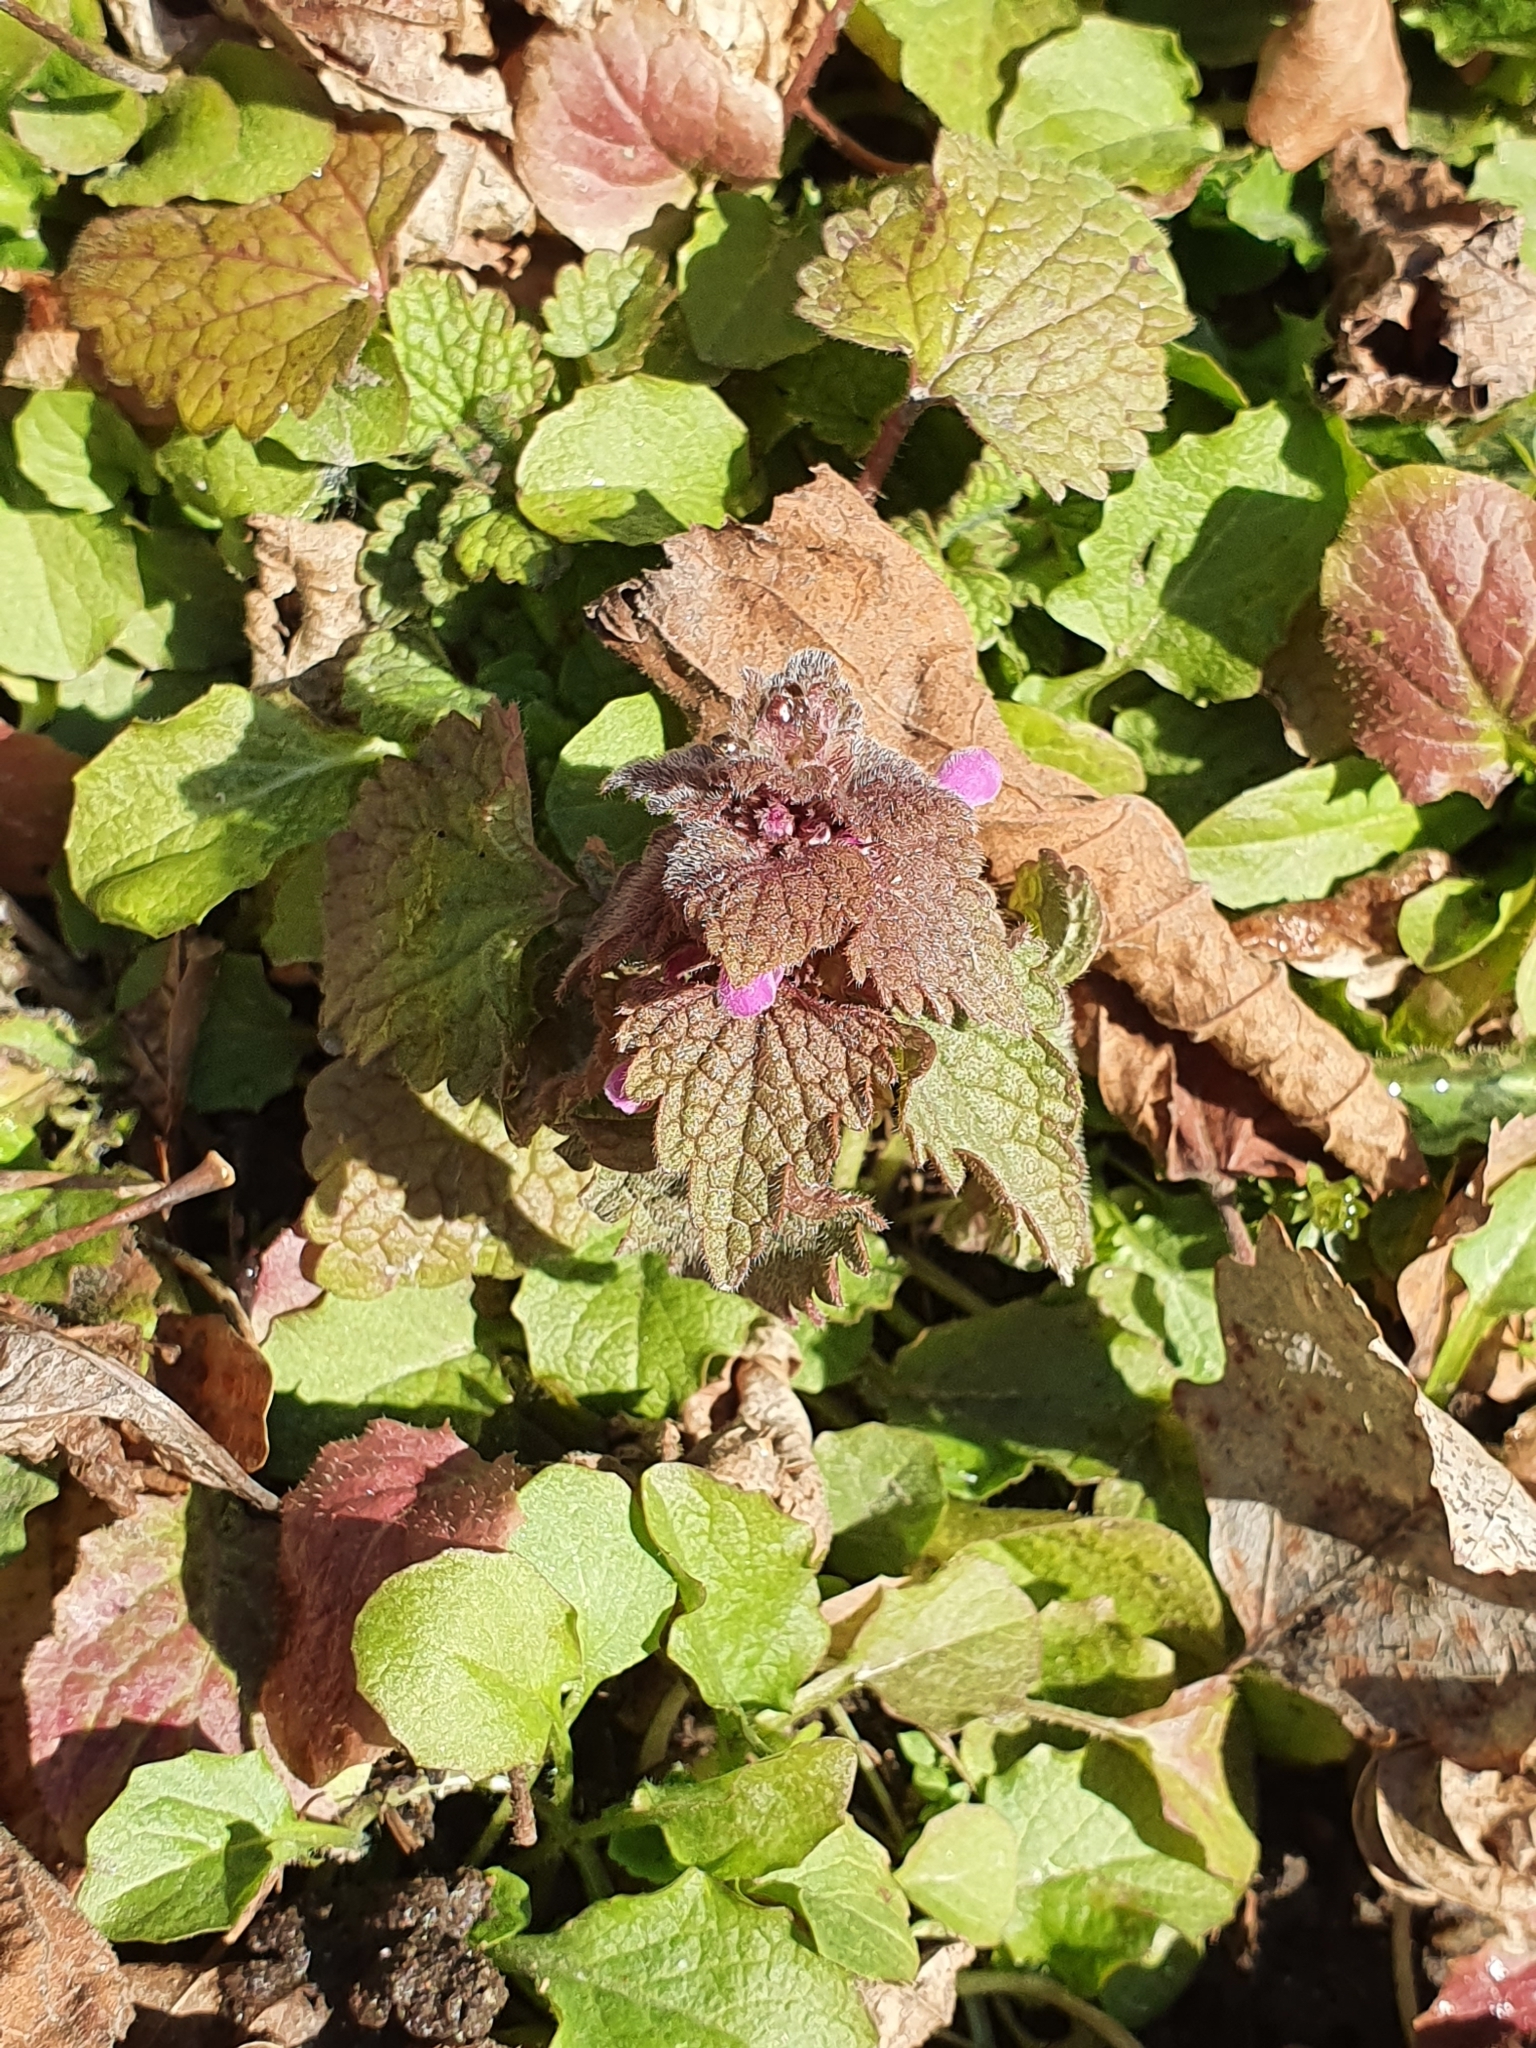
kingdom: Plantae
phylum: Tracheophyta
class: Magnoliopsida
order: Lamiales
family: Lamiaceae
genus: Lamium
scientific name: Lamium purpureum
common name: Red dead-nettle
